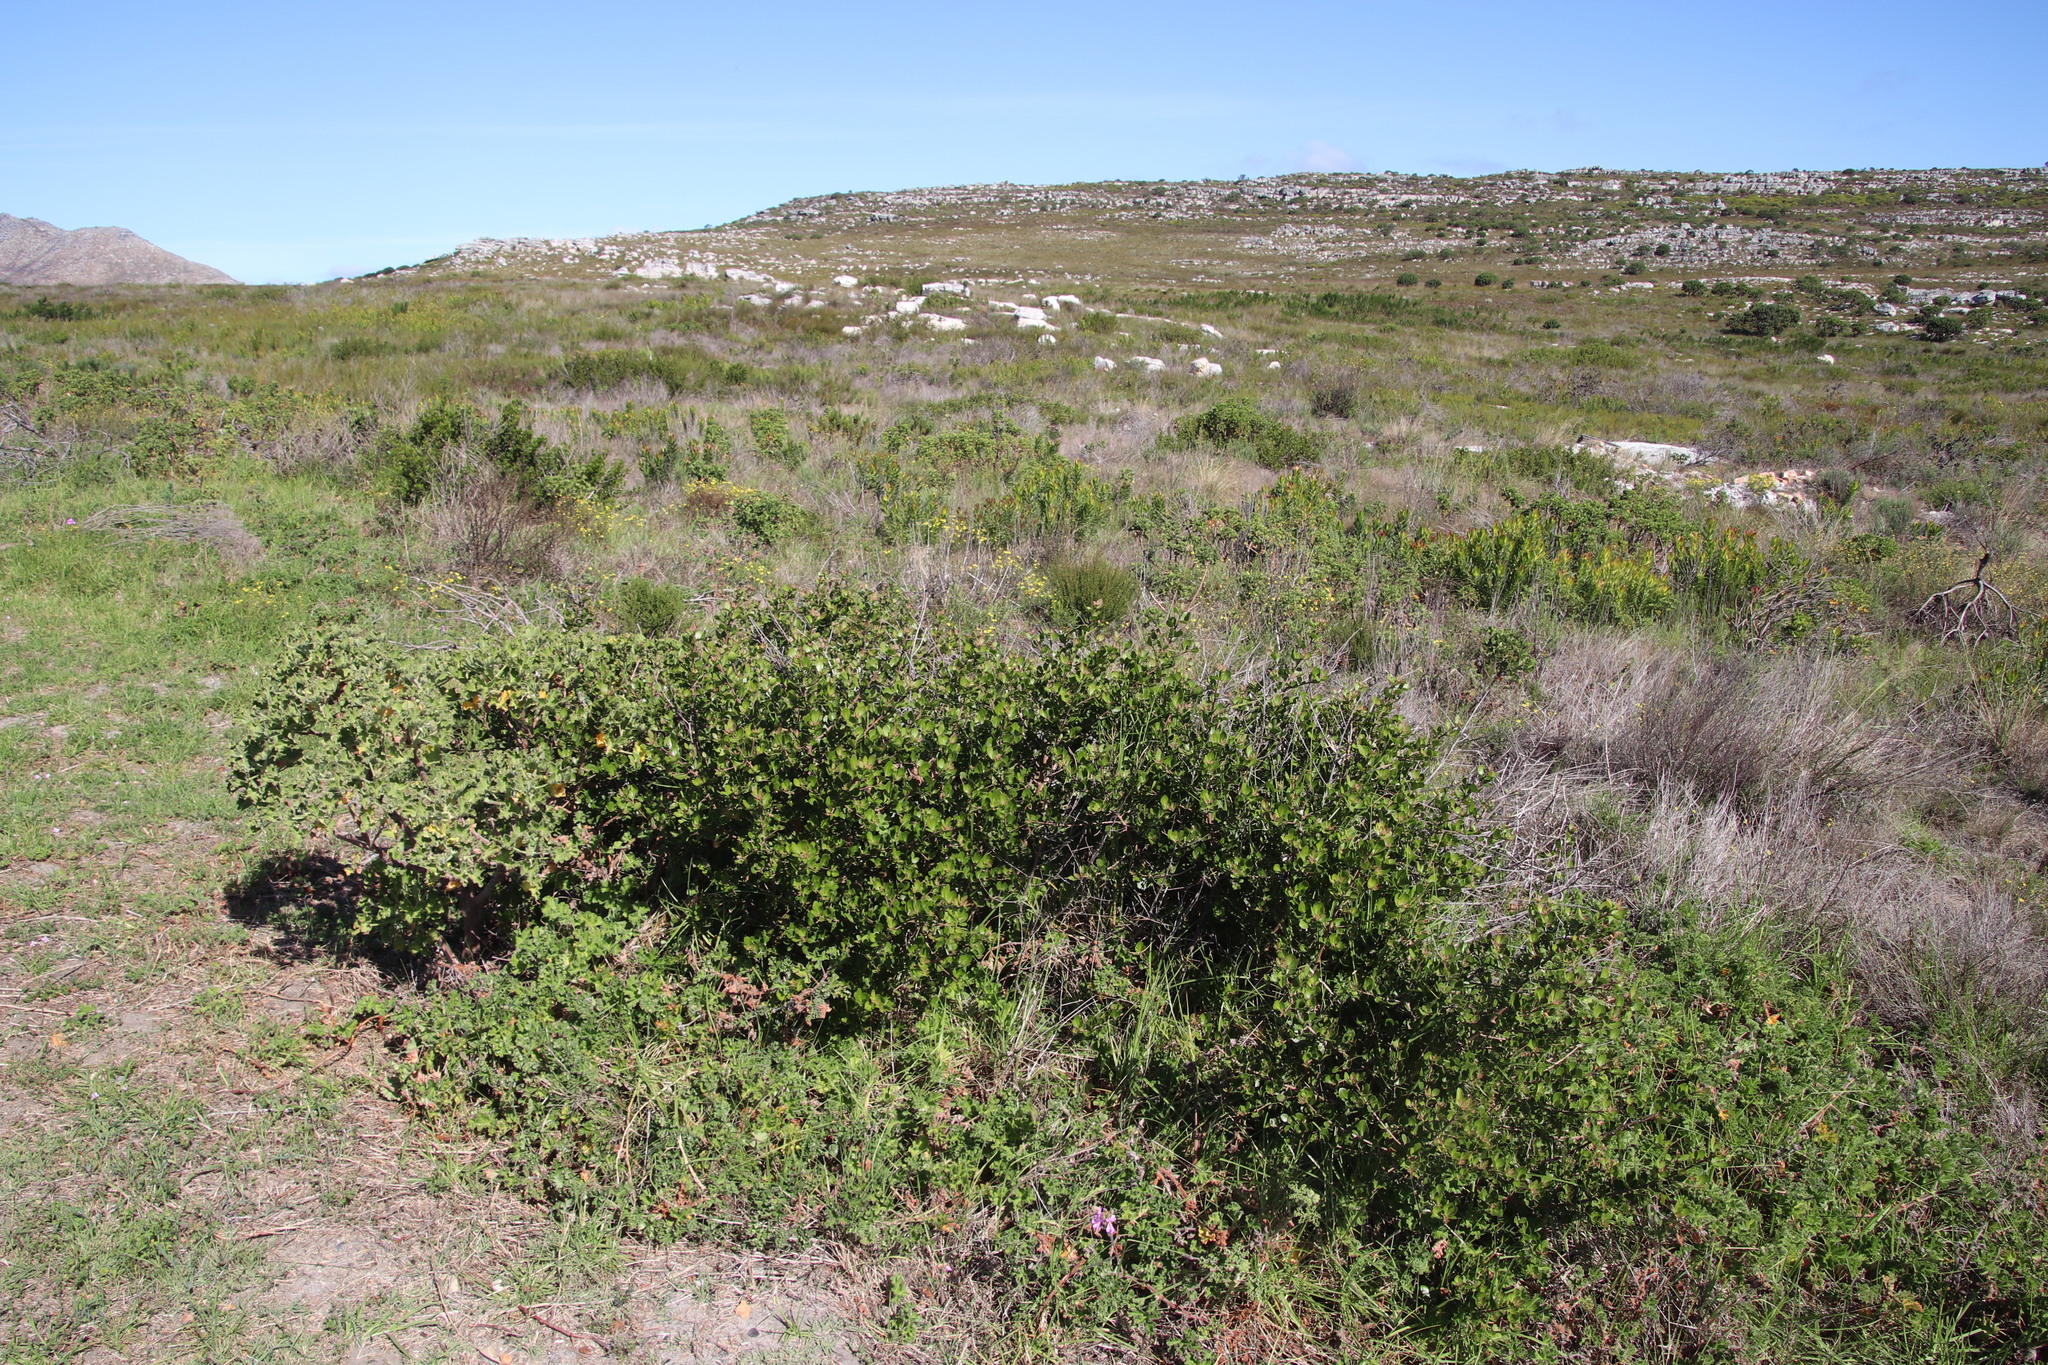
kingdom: Plantae
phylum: Tracheophyta
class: Magnoliopsida
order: Sapindales
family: Anacardiaceae
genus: Searsia
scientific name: Searsia lucida
